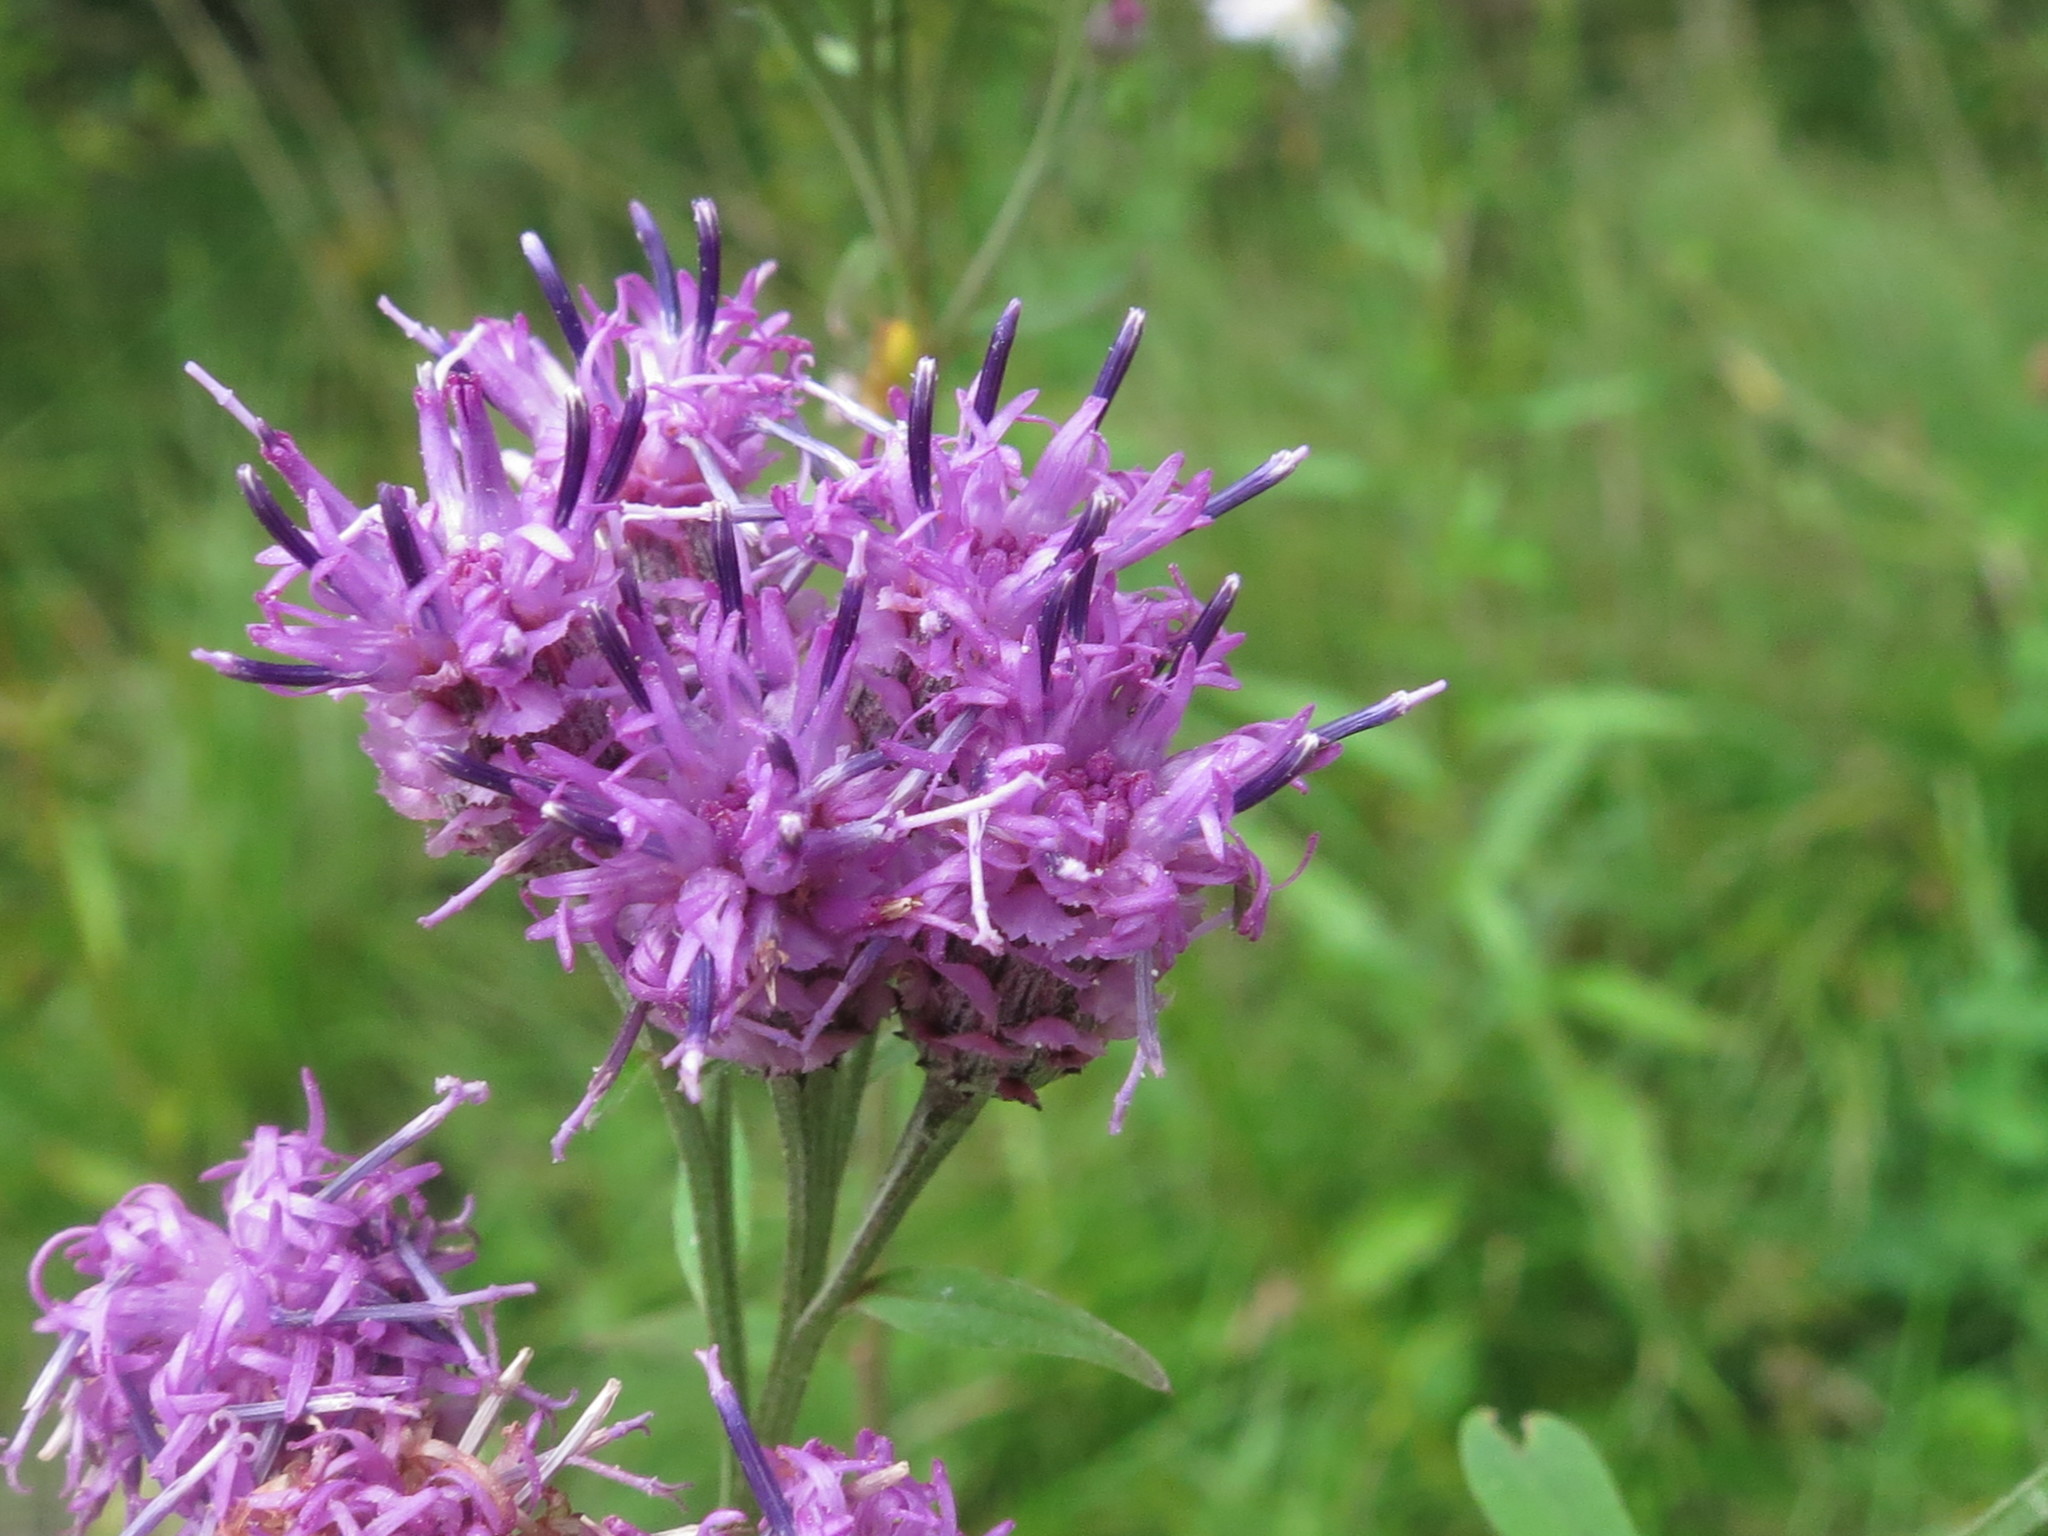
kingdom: Plantae
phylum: Tracheophyta
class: Magnoliopsida
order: Asterales
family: Asteraceae
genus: Saussurea
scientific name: Saussurea pulchella
